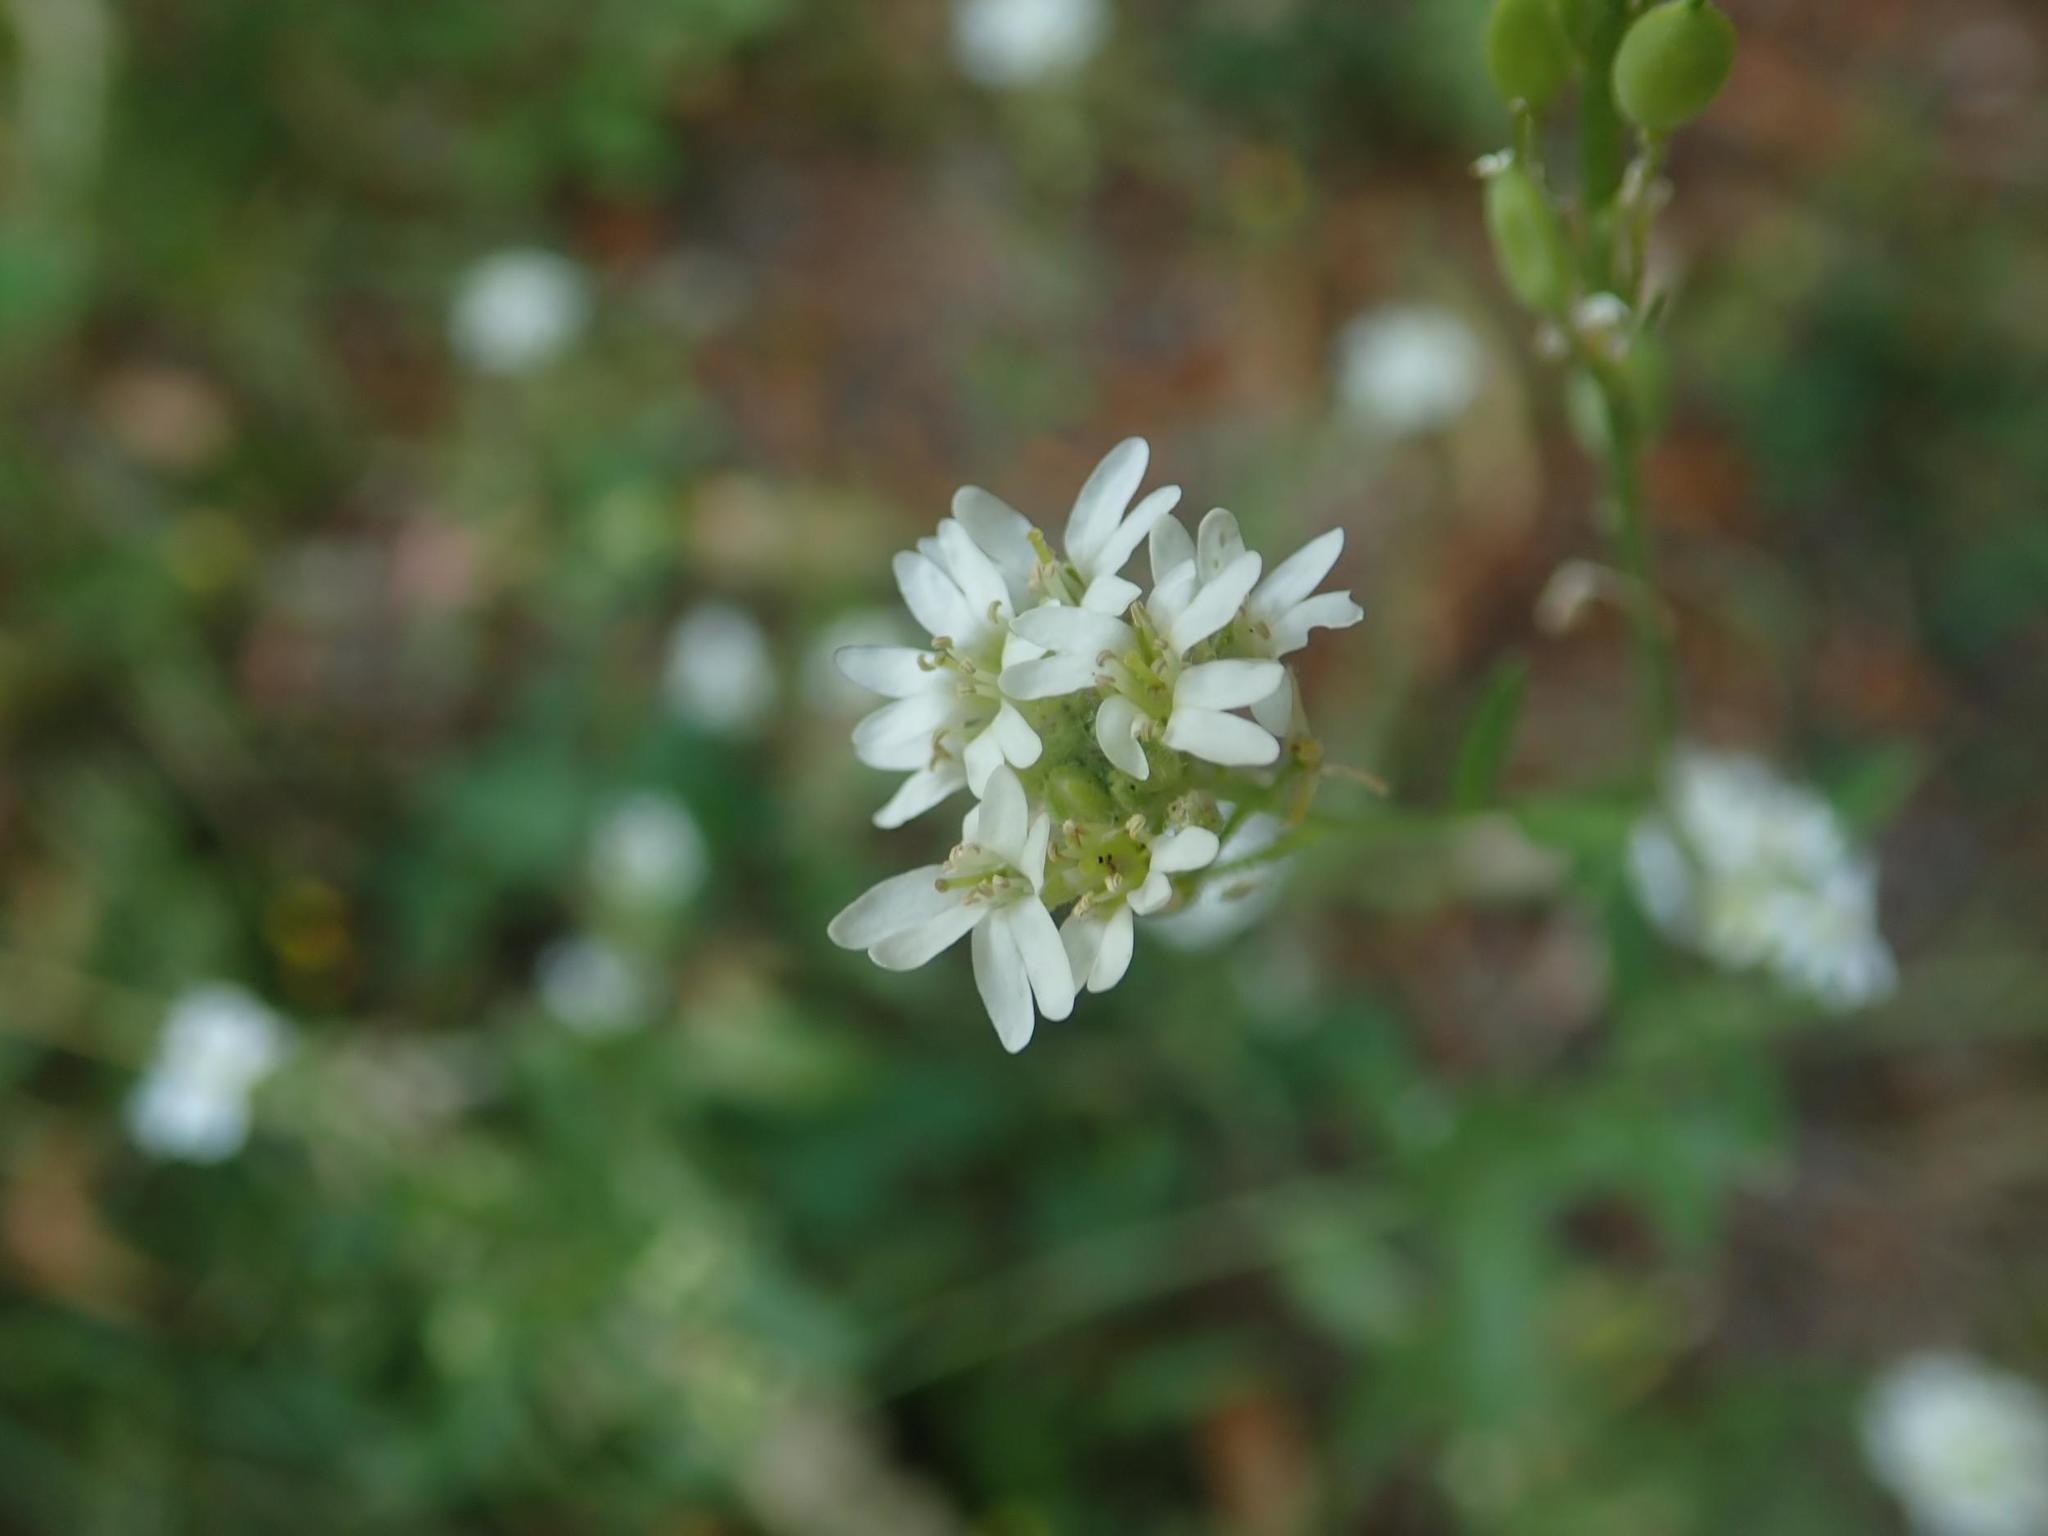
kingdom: Plantae
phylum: Tracheophyta
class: Magnoliopsida
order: Brassicales
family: Brassicaceae
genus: Berteroa
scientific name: Berteroa incana
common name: Hoary alison
